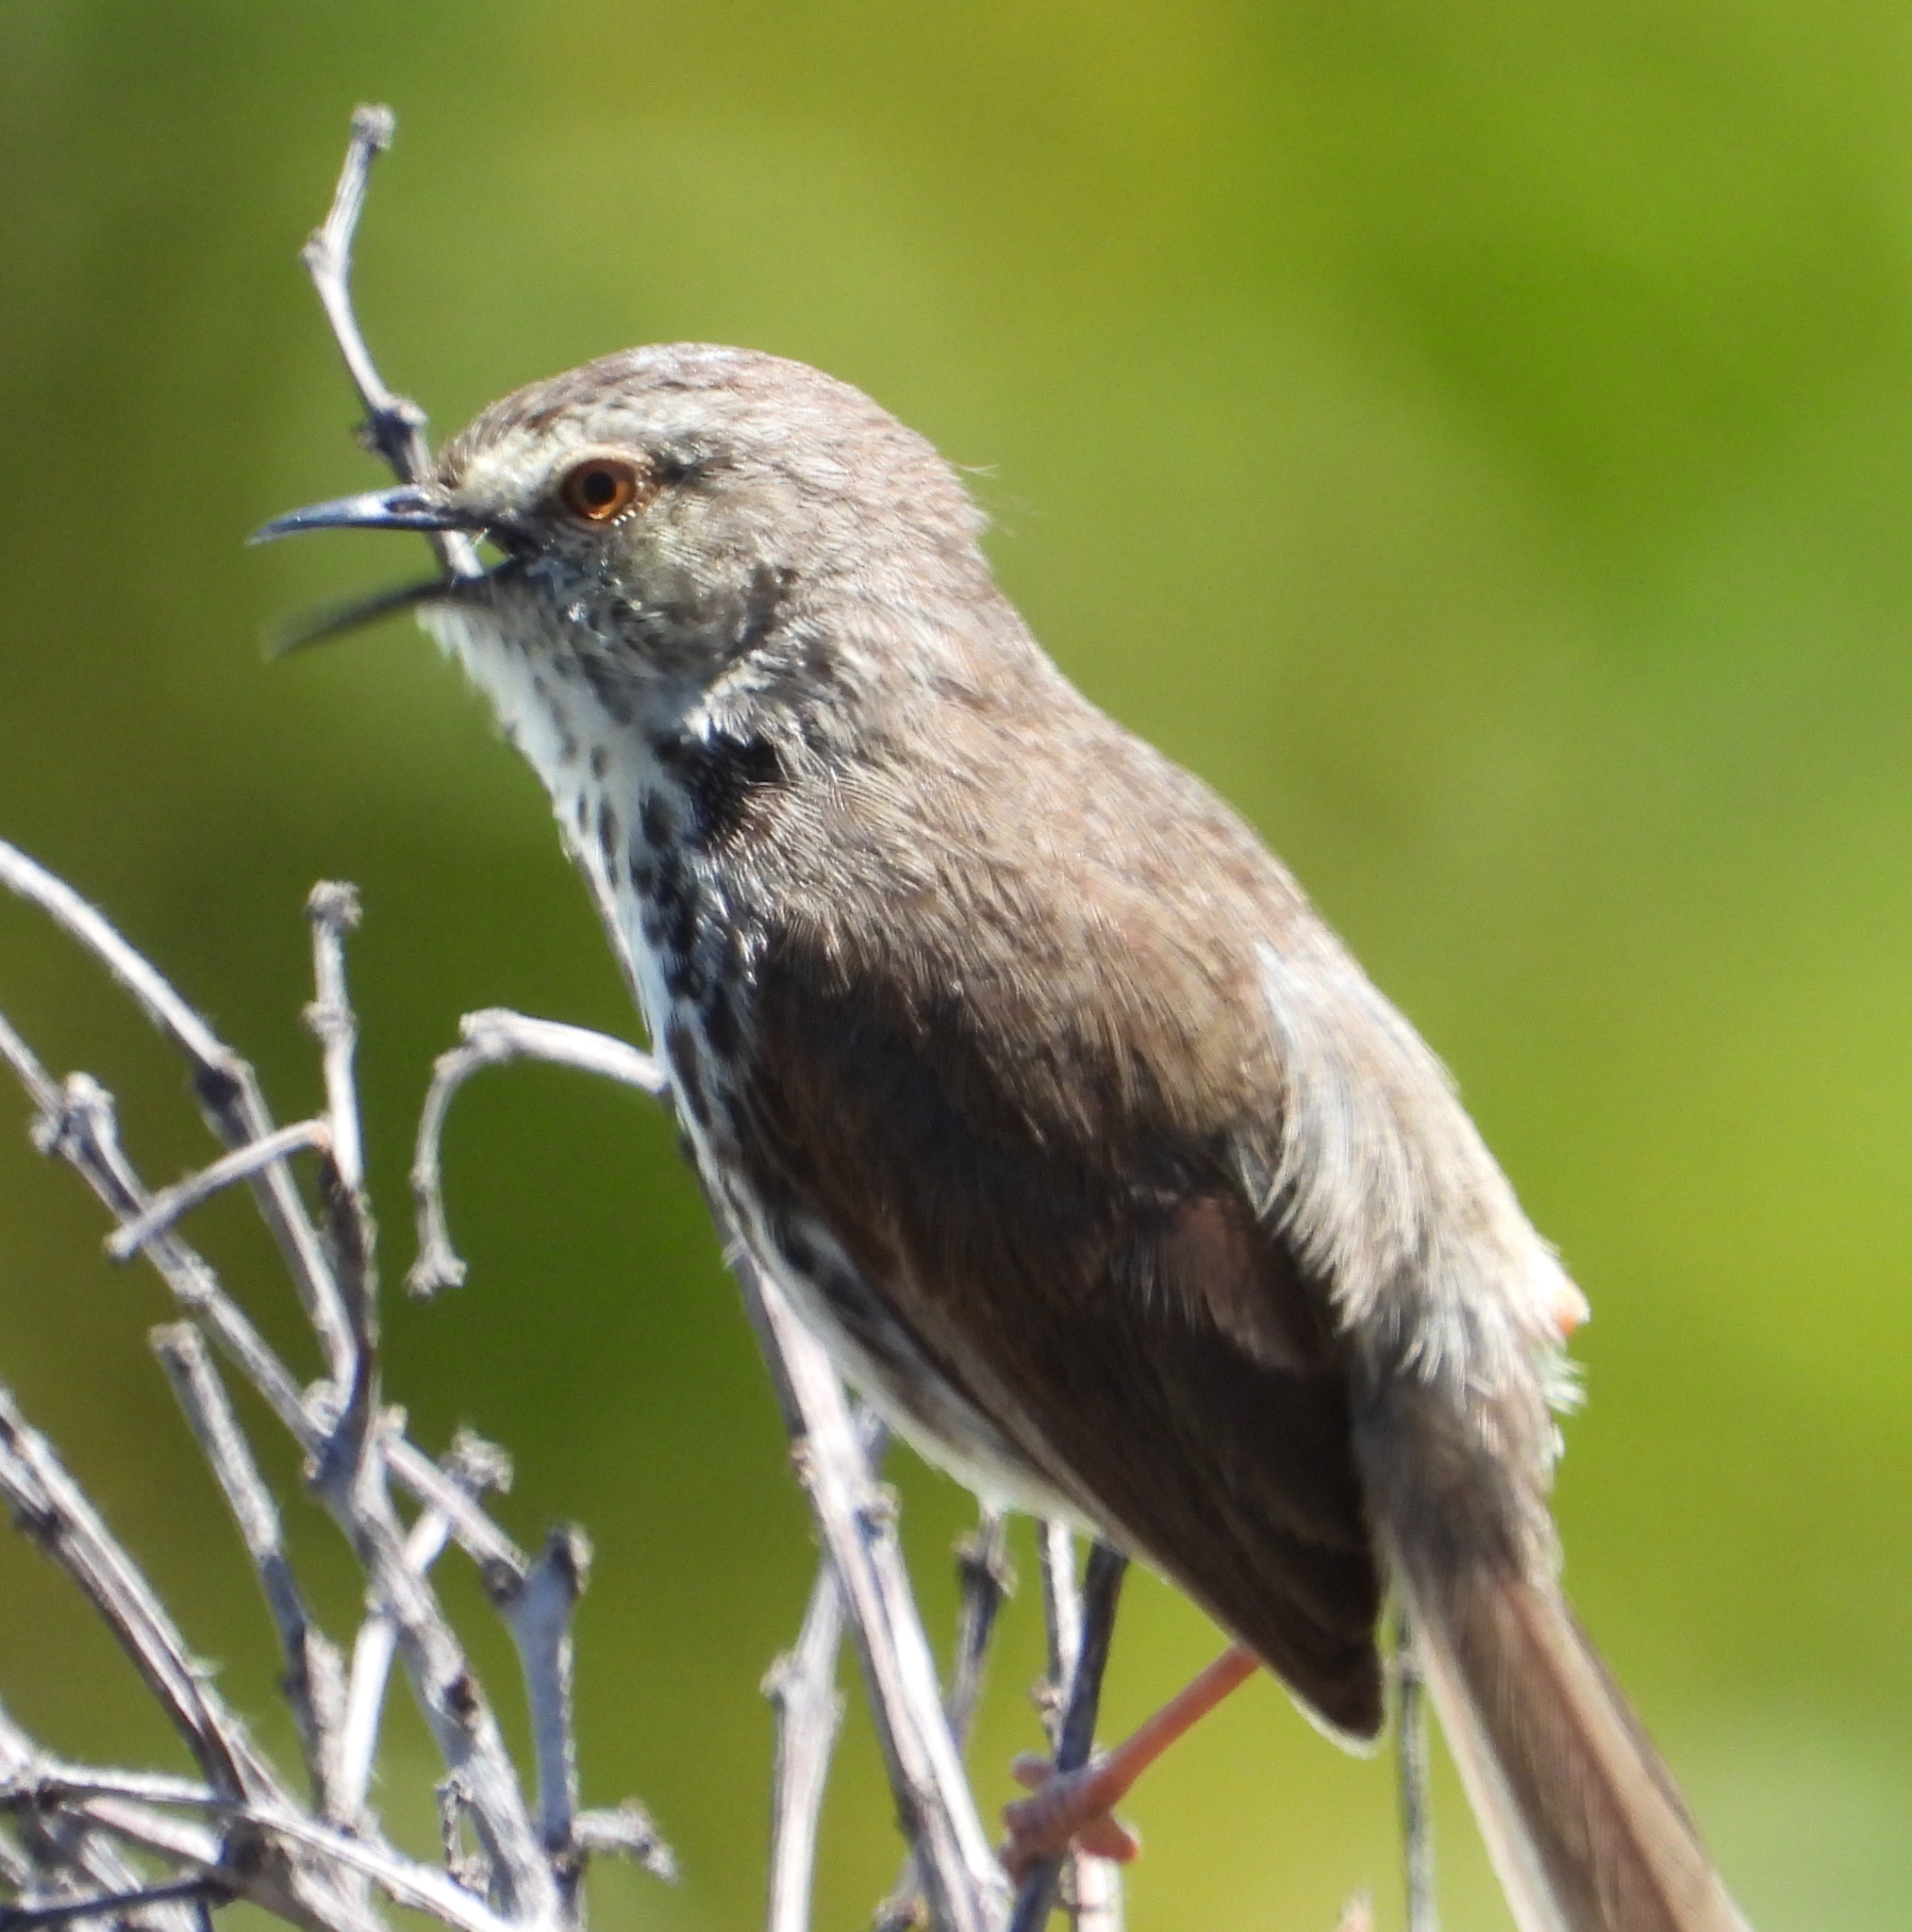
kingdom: Animalia
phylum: Chordata
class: Aves
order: Passeriformes
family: Cisticolidae
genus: Prinia
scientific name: Prinia maculosa
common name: Karoo prinia
